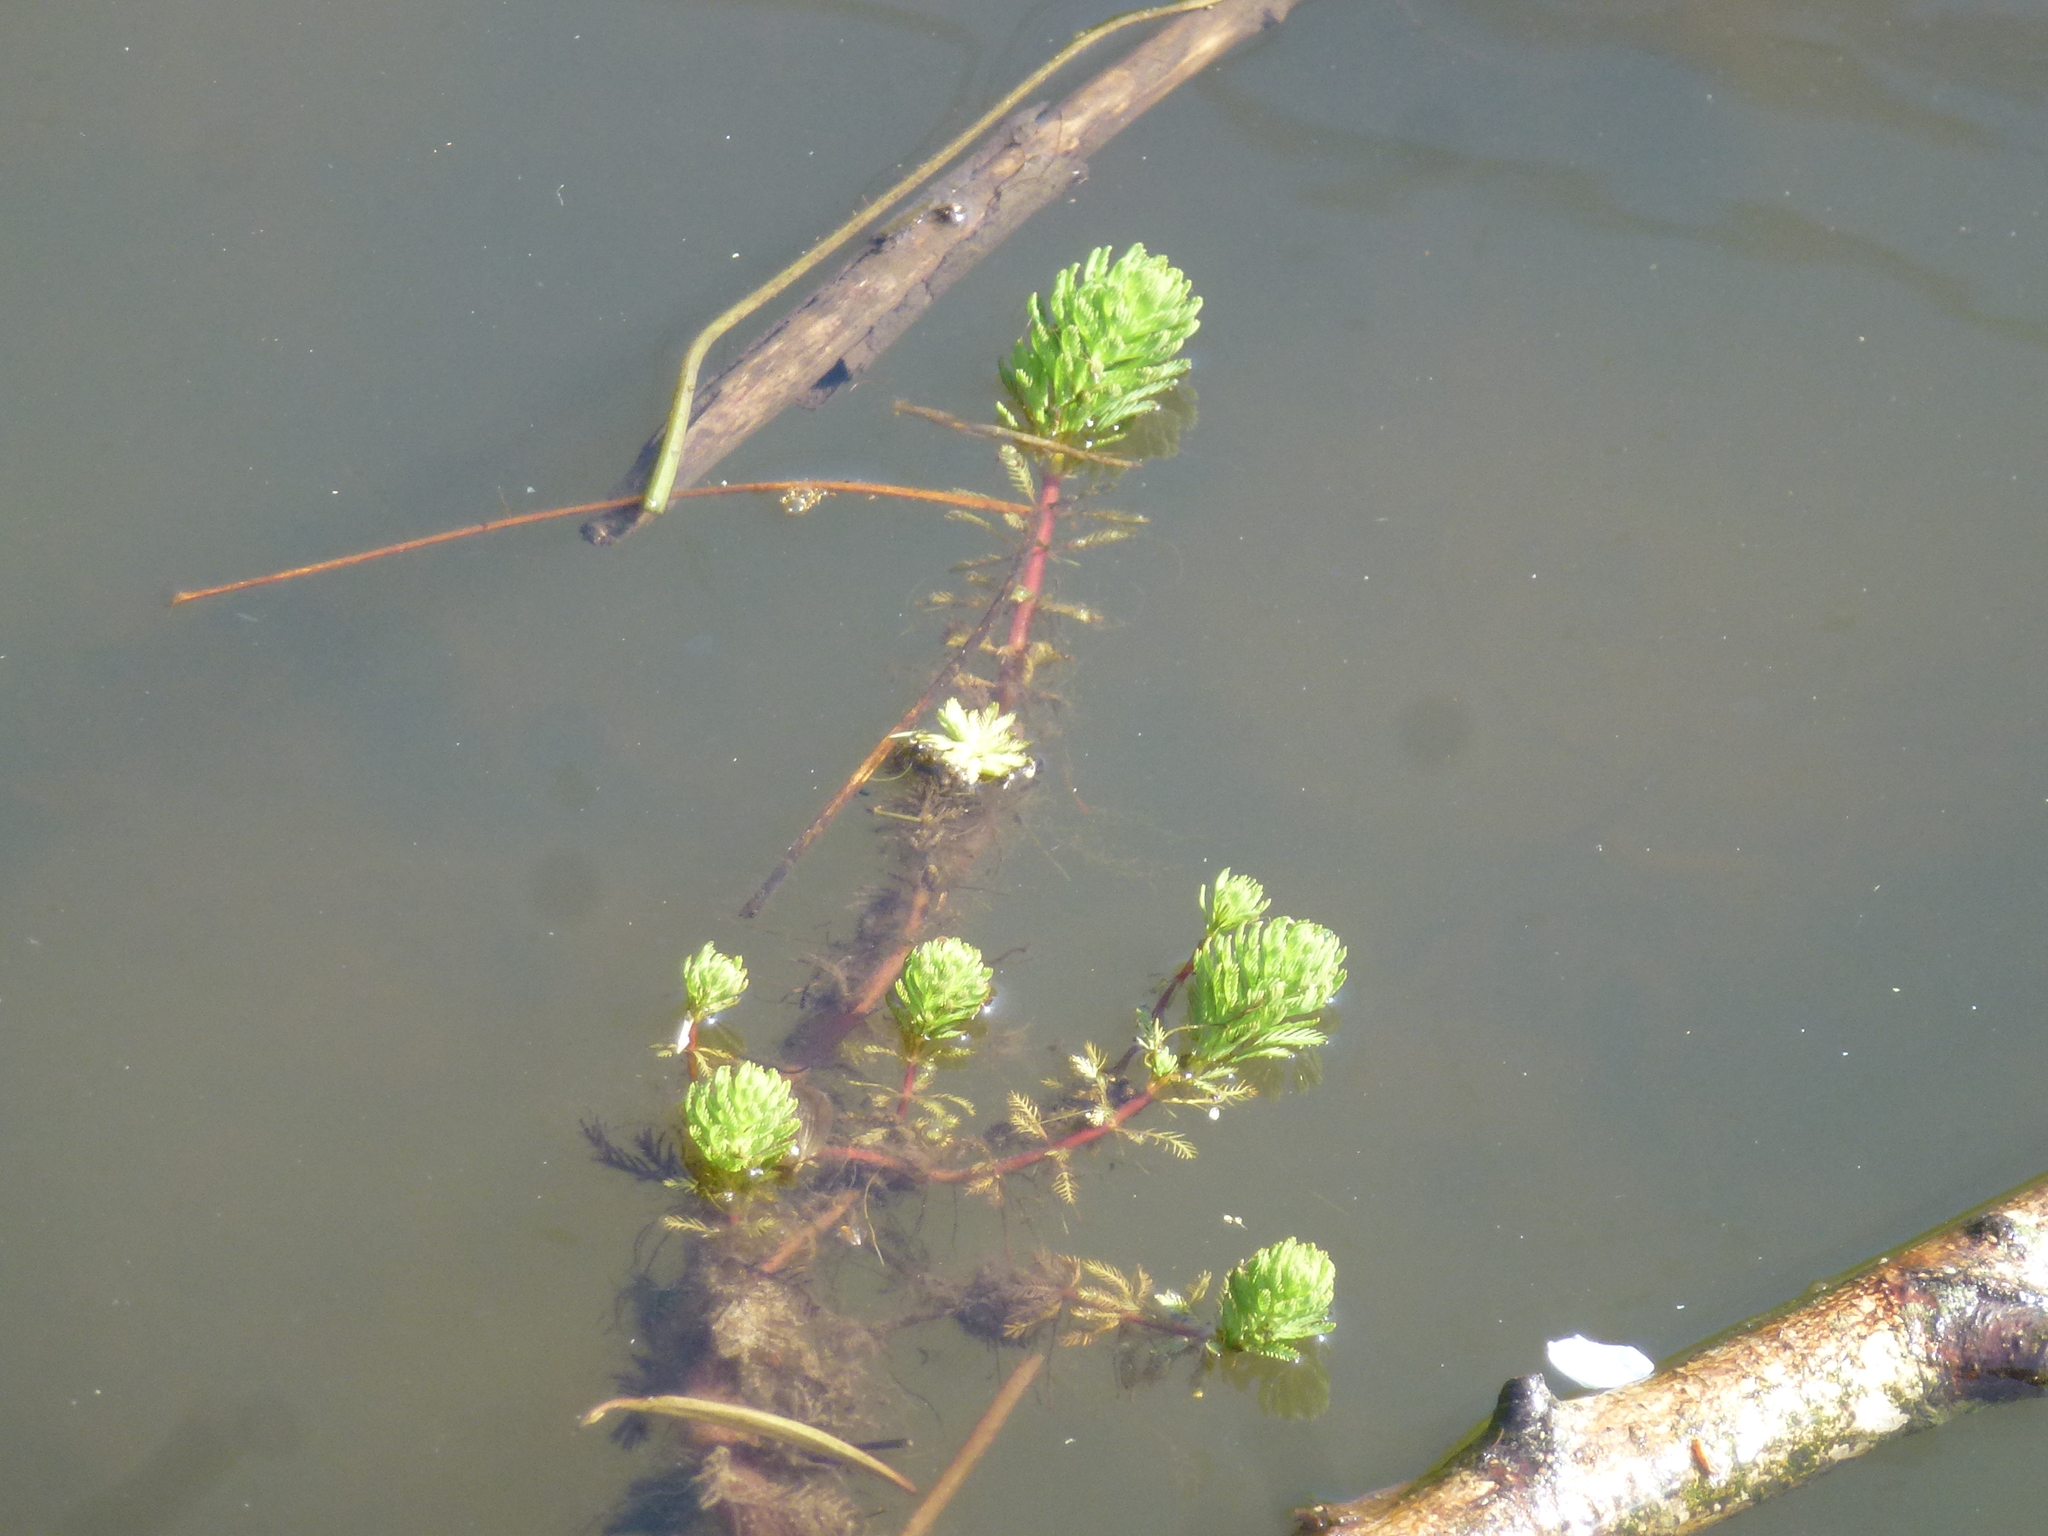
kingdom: Plantae
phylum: Tracheophyta
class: Magnoliopsida
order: Saxifragales
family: Haloragaceae
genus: Myriophyllum
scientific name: Myriophyllum aquaticum
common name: Parrot's feather
